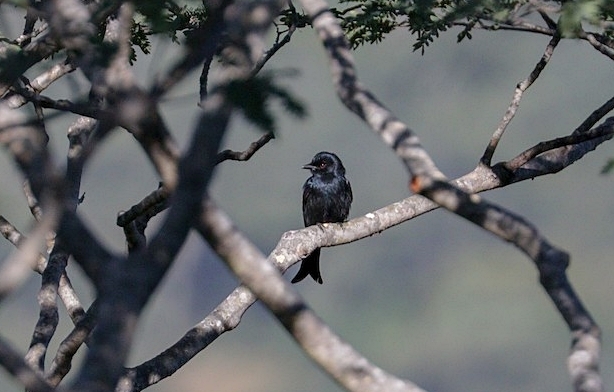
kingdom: Animalia
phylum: Chordata
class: Aves
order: Passeriformes
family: Dicruridae
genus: Dicrurus
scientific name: Dicrurus adsimilis
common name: Fork-tailed drongo
